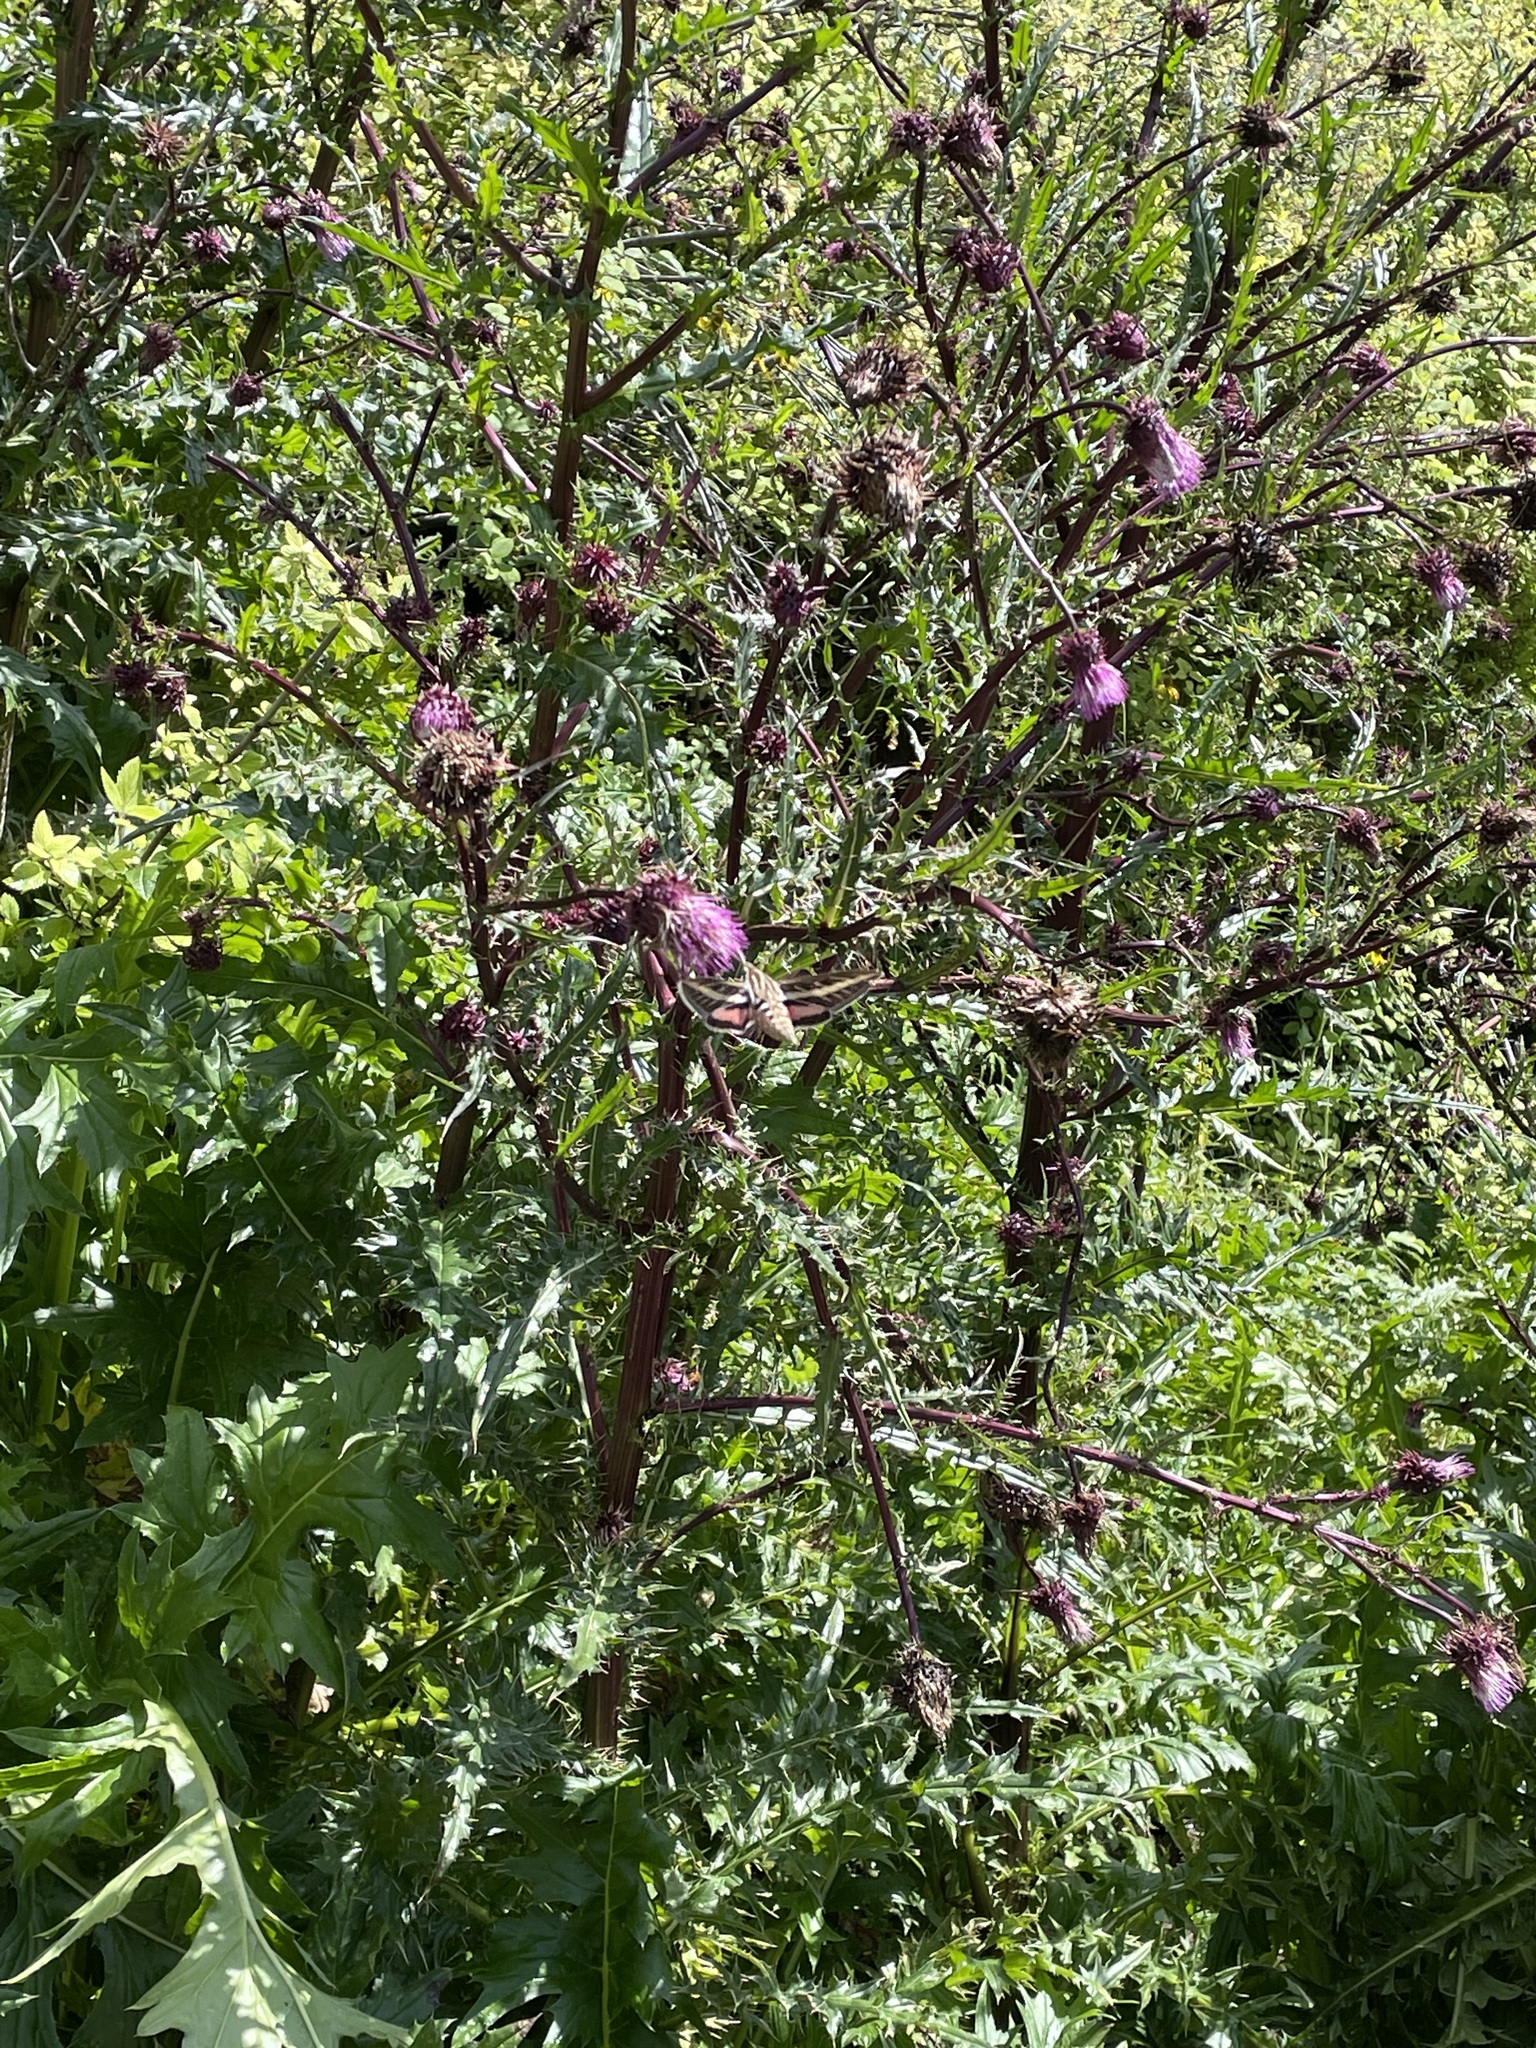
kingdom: Animalia
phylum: Arthropoda
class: Insecta
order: Lepidoptera
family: Sphingidae
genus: Hyles
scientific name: Hyles lineata
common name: White-lined sphinx
